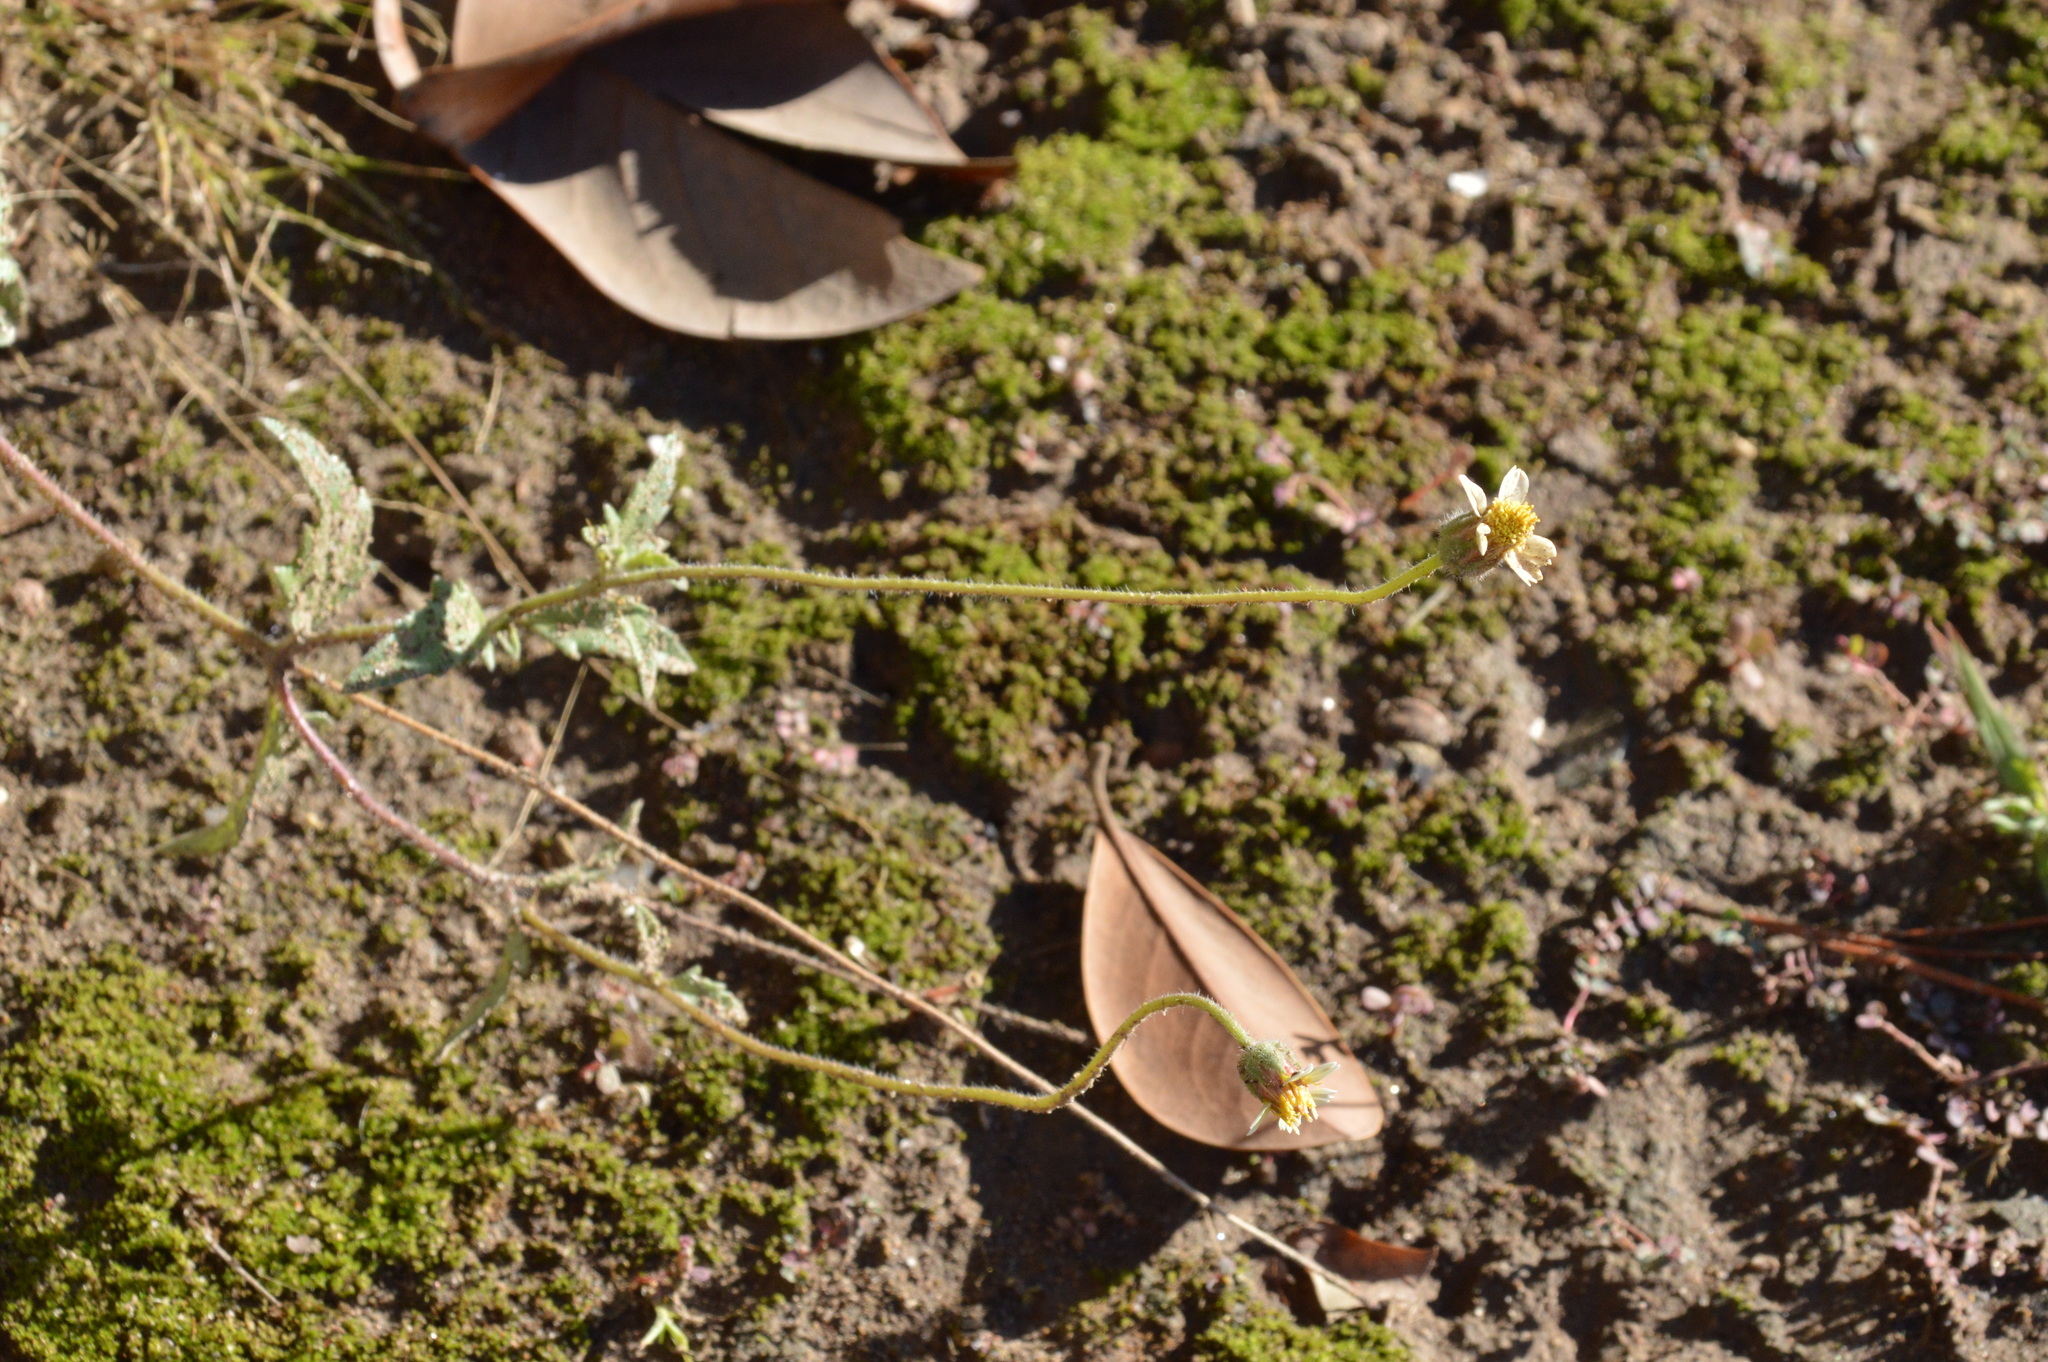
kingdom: Plantae
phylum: Tracheophyta
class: Magnoliopsida
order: Asterales
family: Asteraceae
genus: Tridax
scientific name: Tridax procumbens
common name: Coatbuttons
